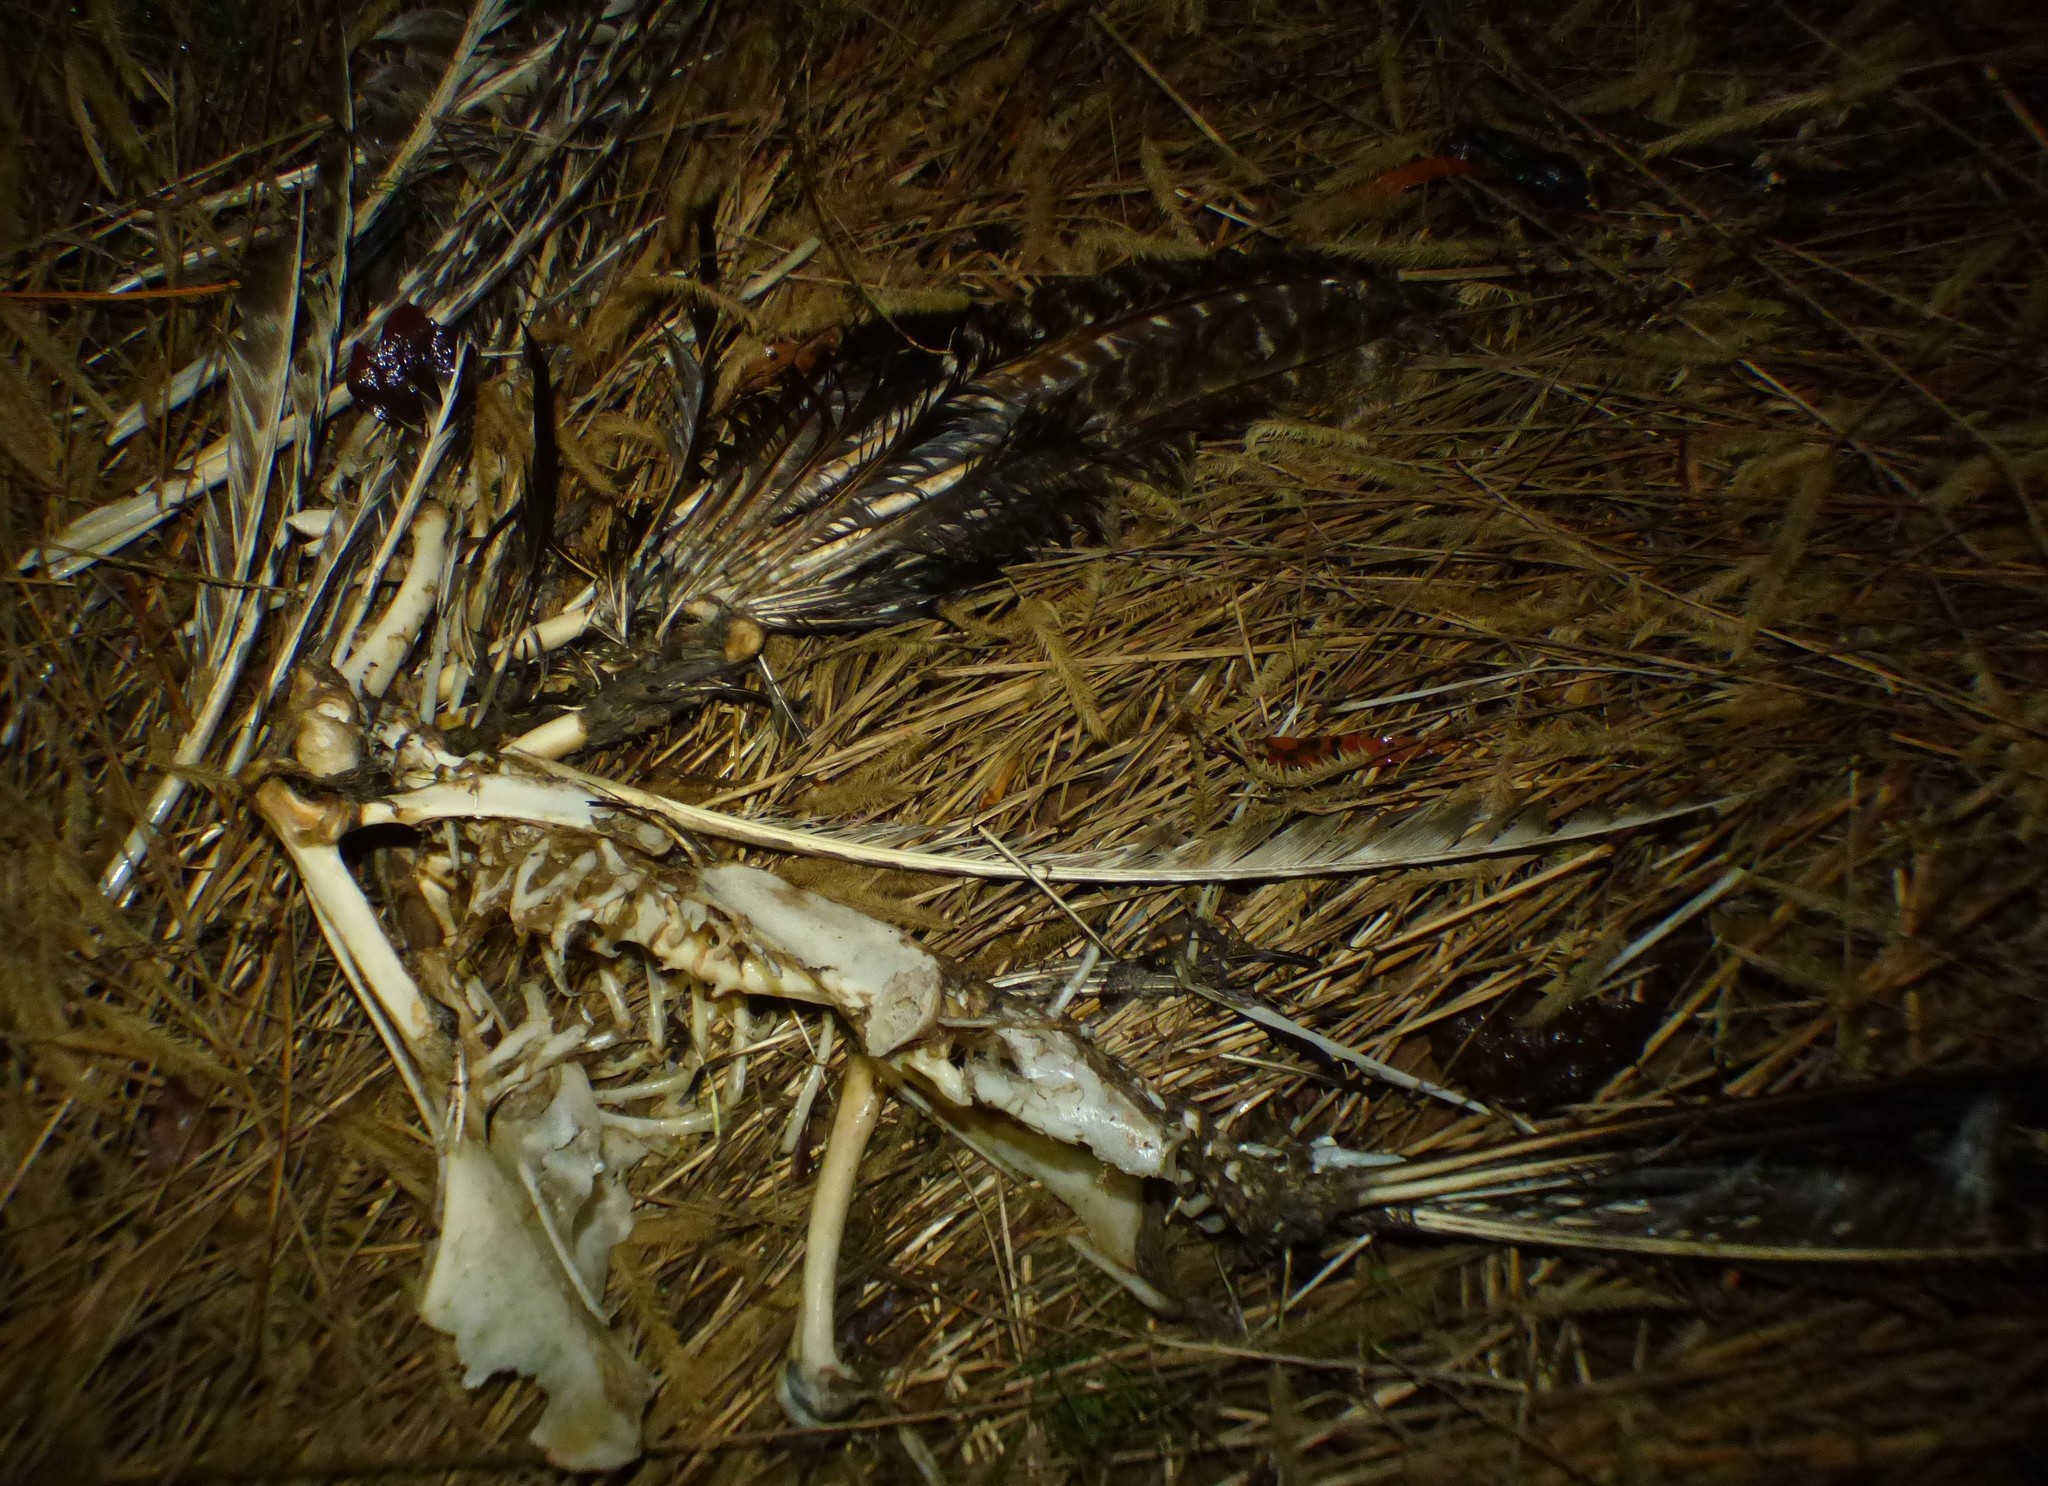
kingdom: Animalia
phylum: Chordata
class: Aves
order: Galliformes
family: Phasianidae
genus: Meleagris
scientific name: Meleagris gallopavo
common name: Wild turkey
